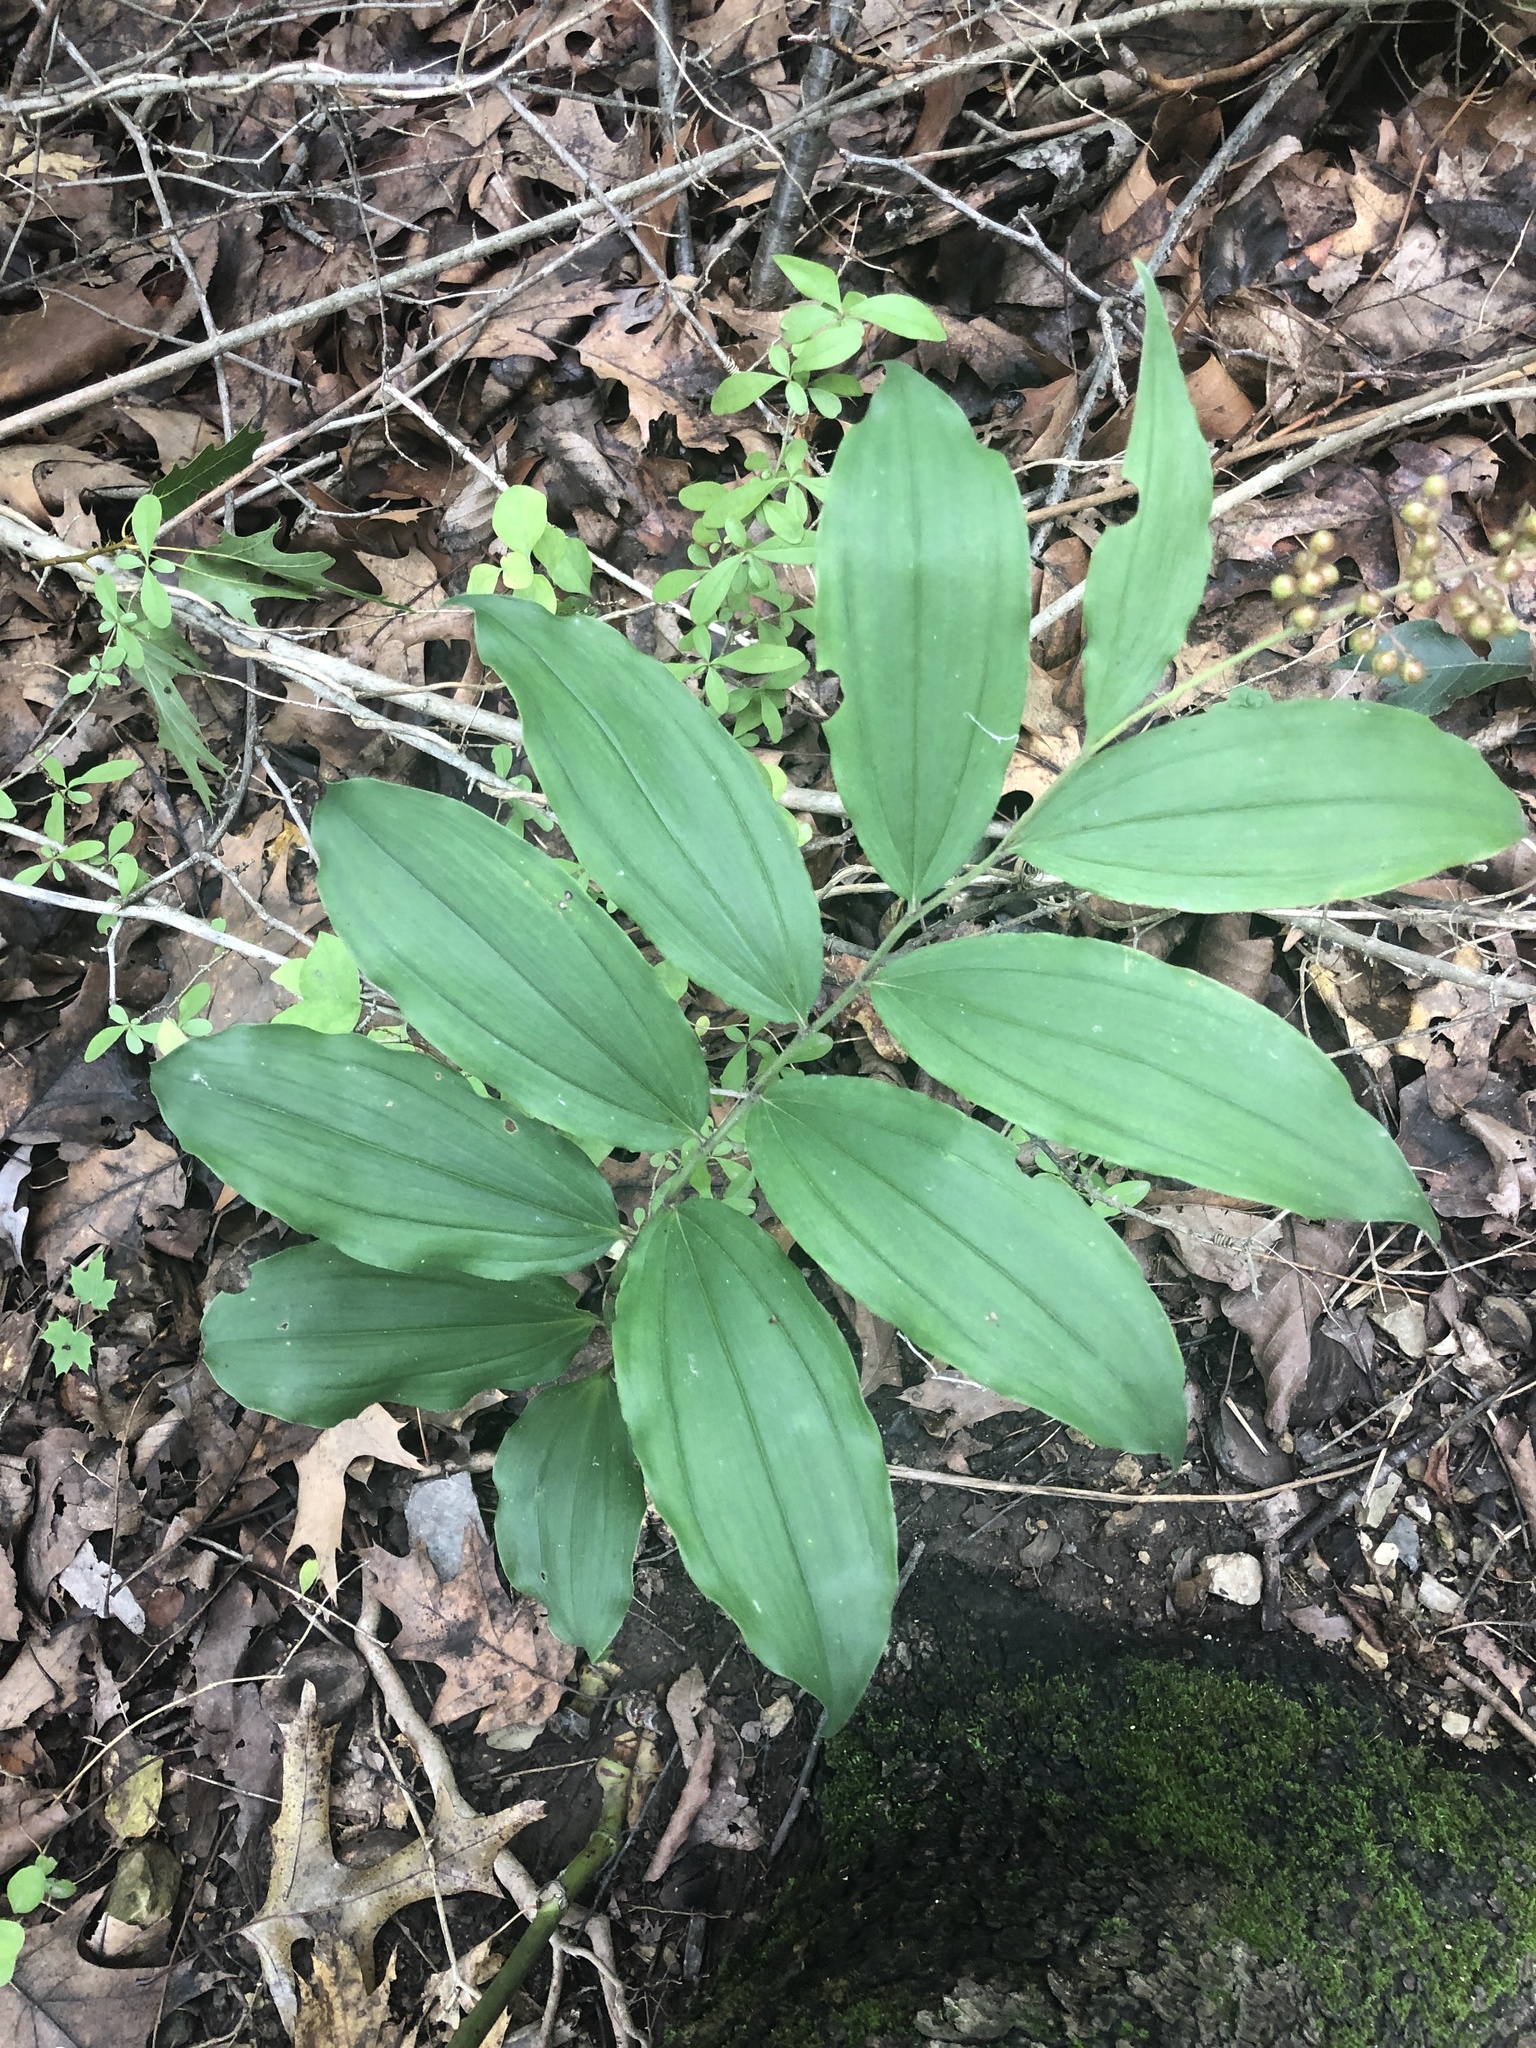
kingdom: Plantae
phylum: Tracheophyta
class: Liliopsida
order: Asparagales
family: Asparagaceae
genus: Maianthemum
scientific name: Maianthemum racemosum
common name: False spikenard
